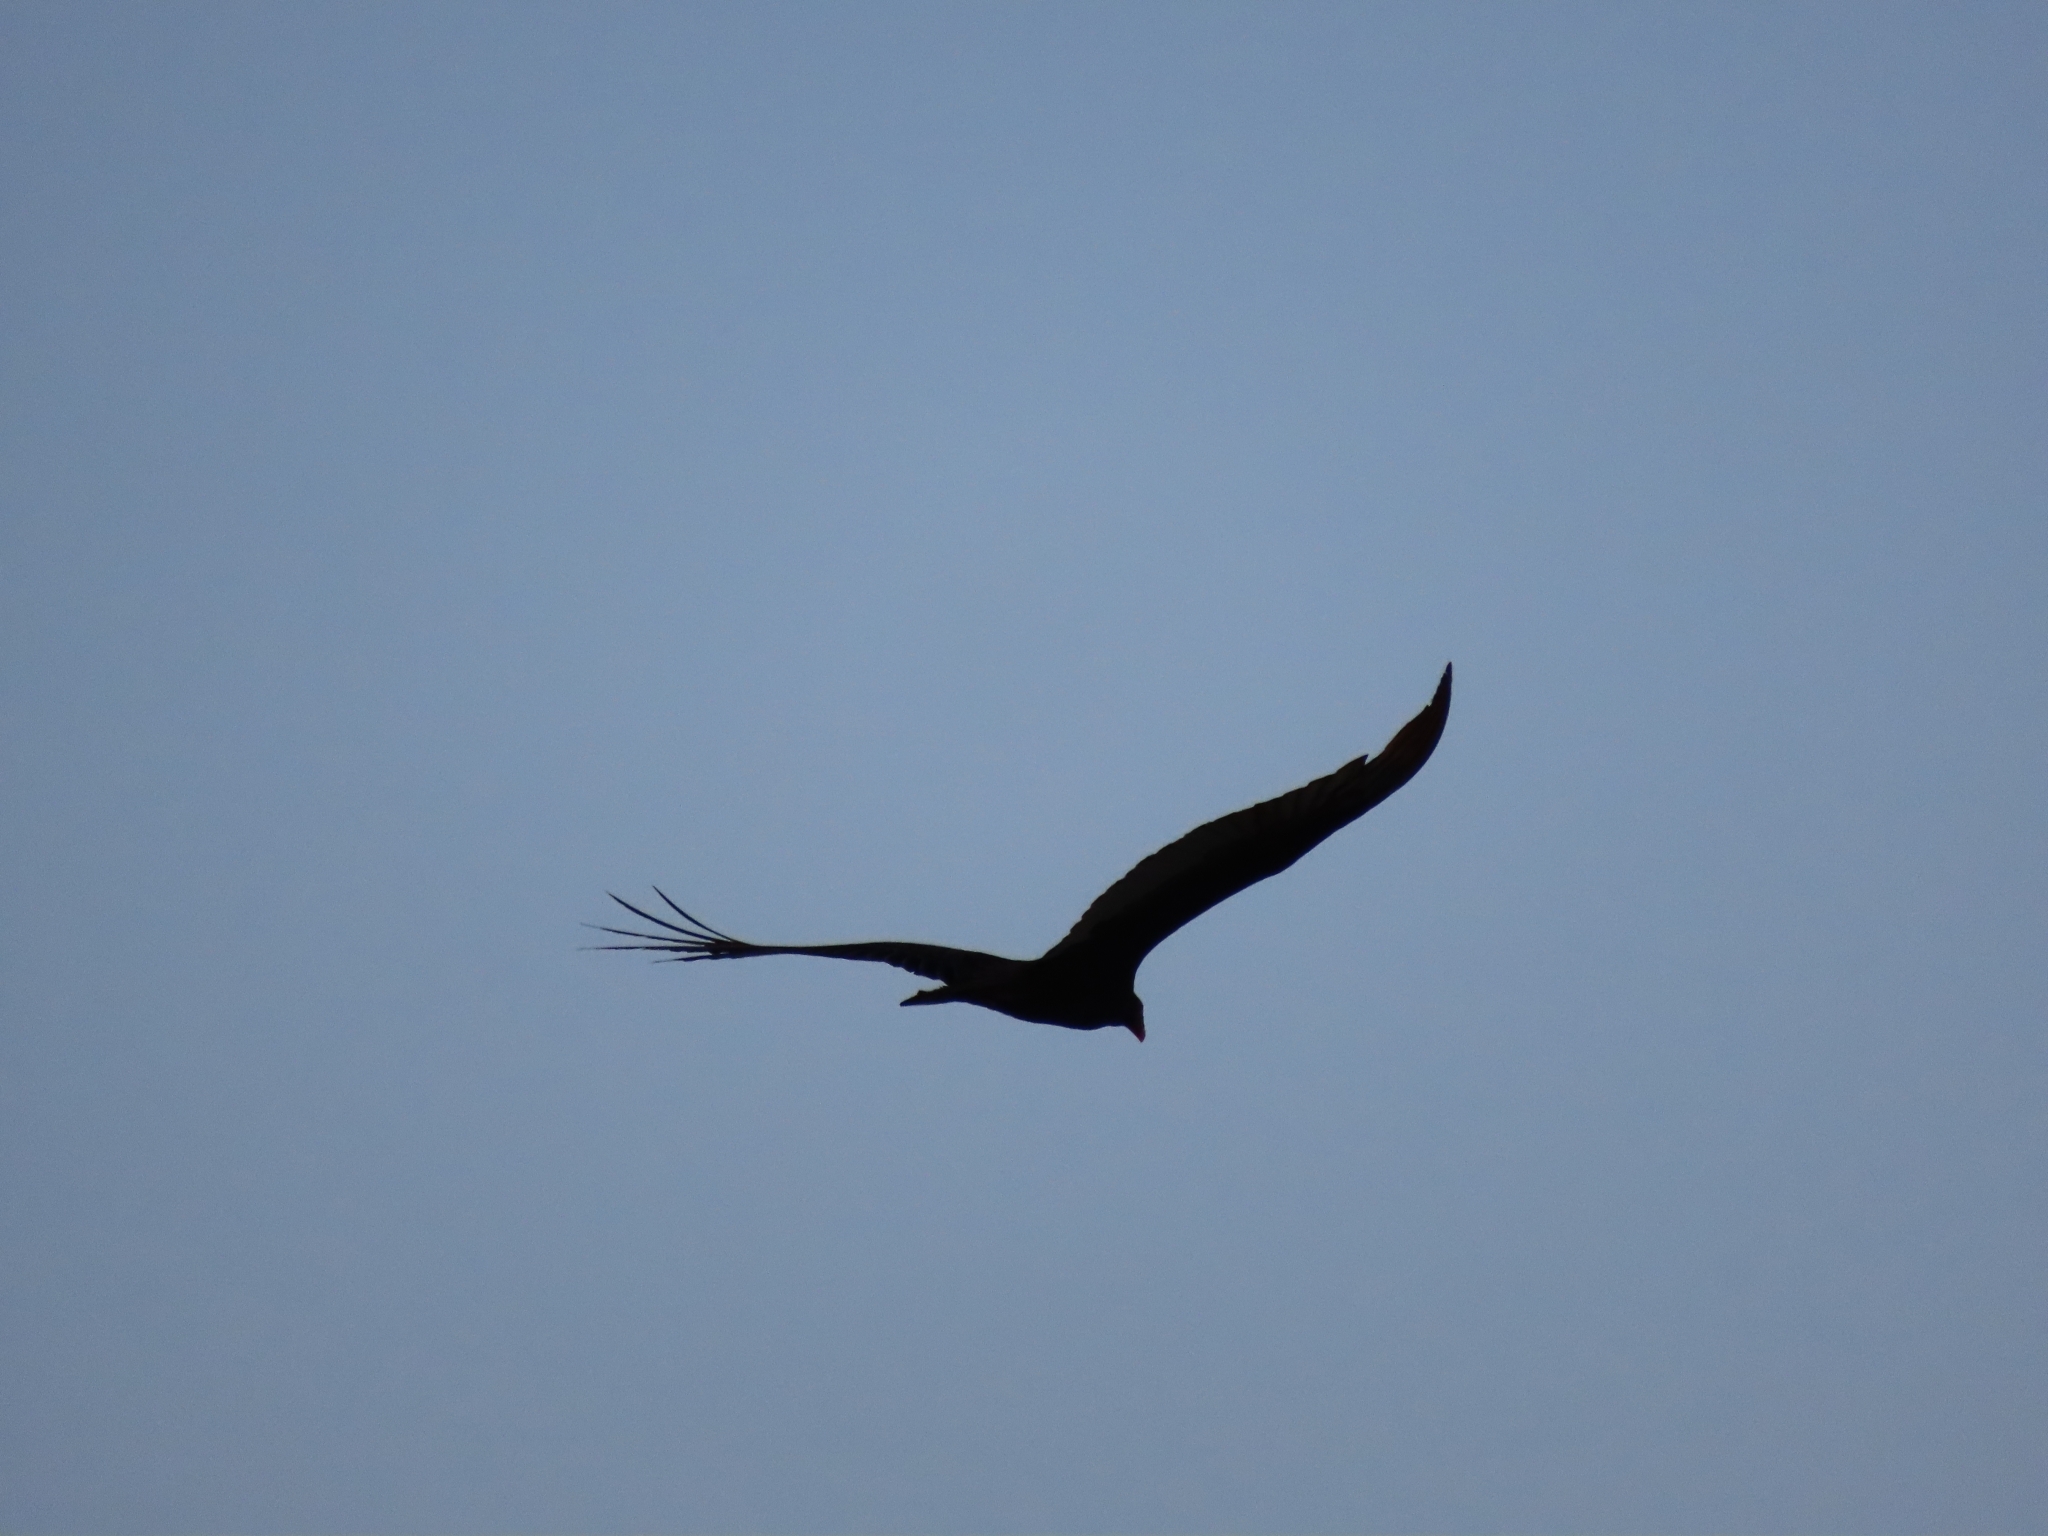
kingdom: Animalia
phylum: Chordata
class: Aves
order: Accipitriformes
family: Cathartidae
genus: Cathartes
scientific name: Cathartes aura
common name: Turkey vulture
